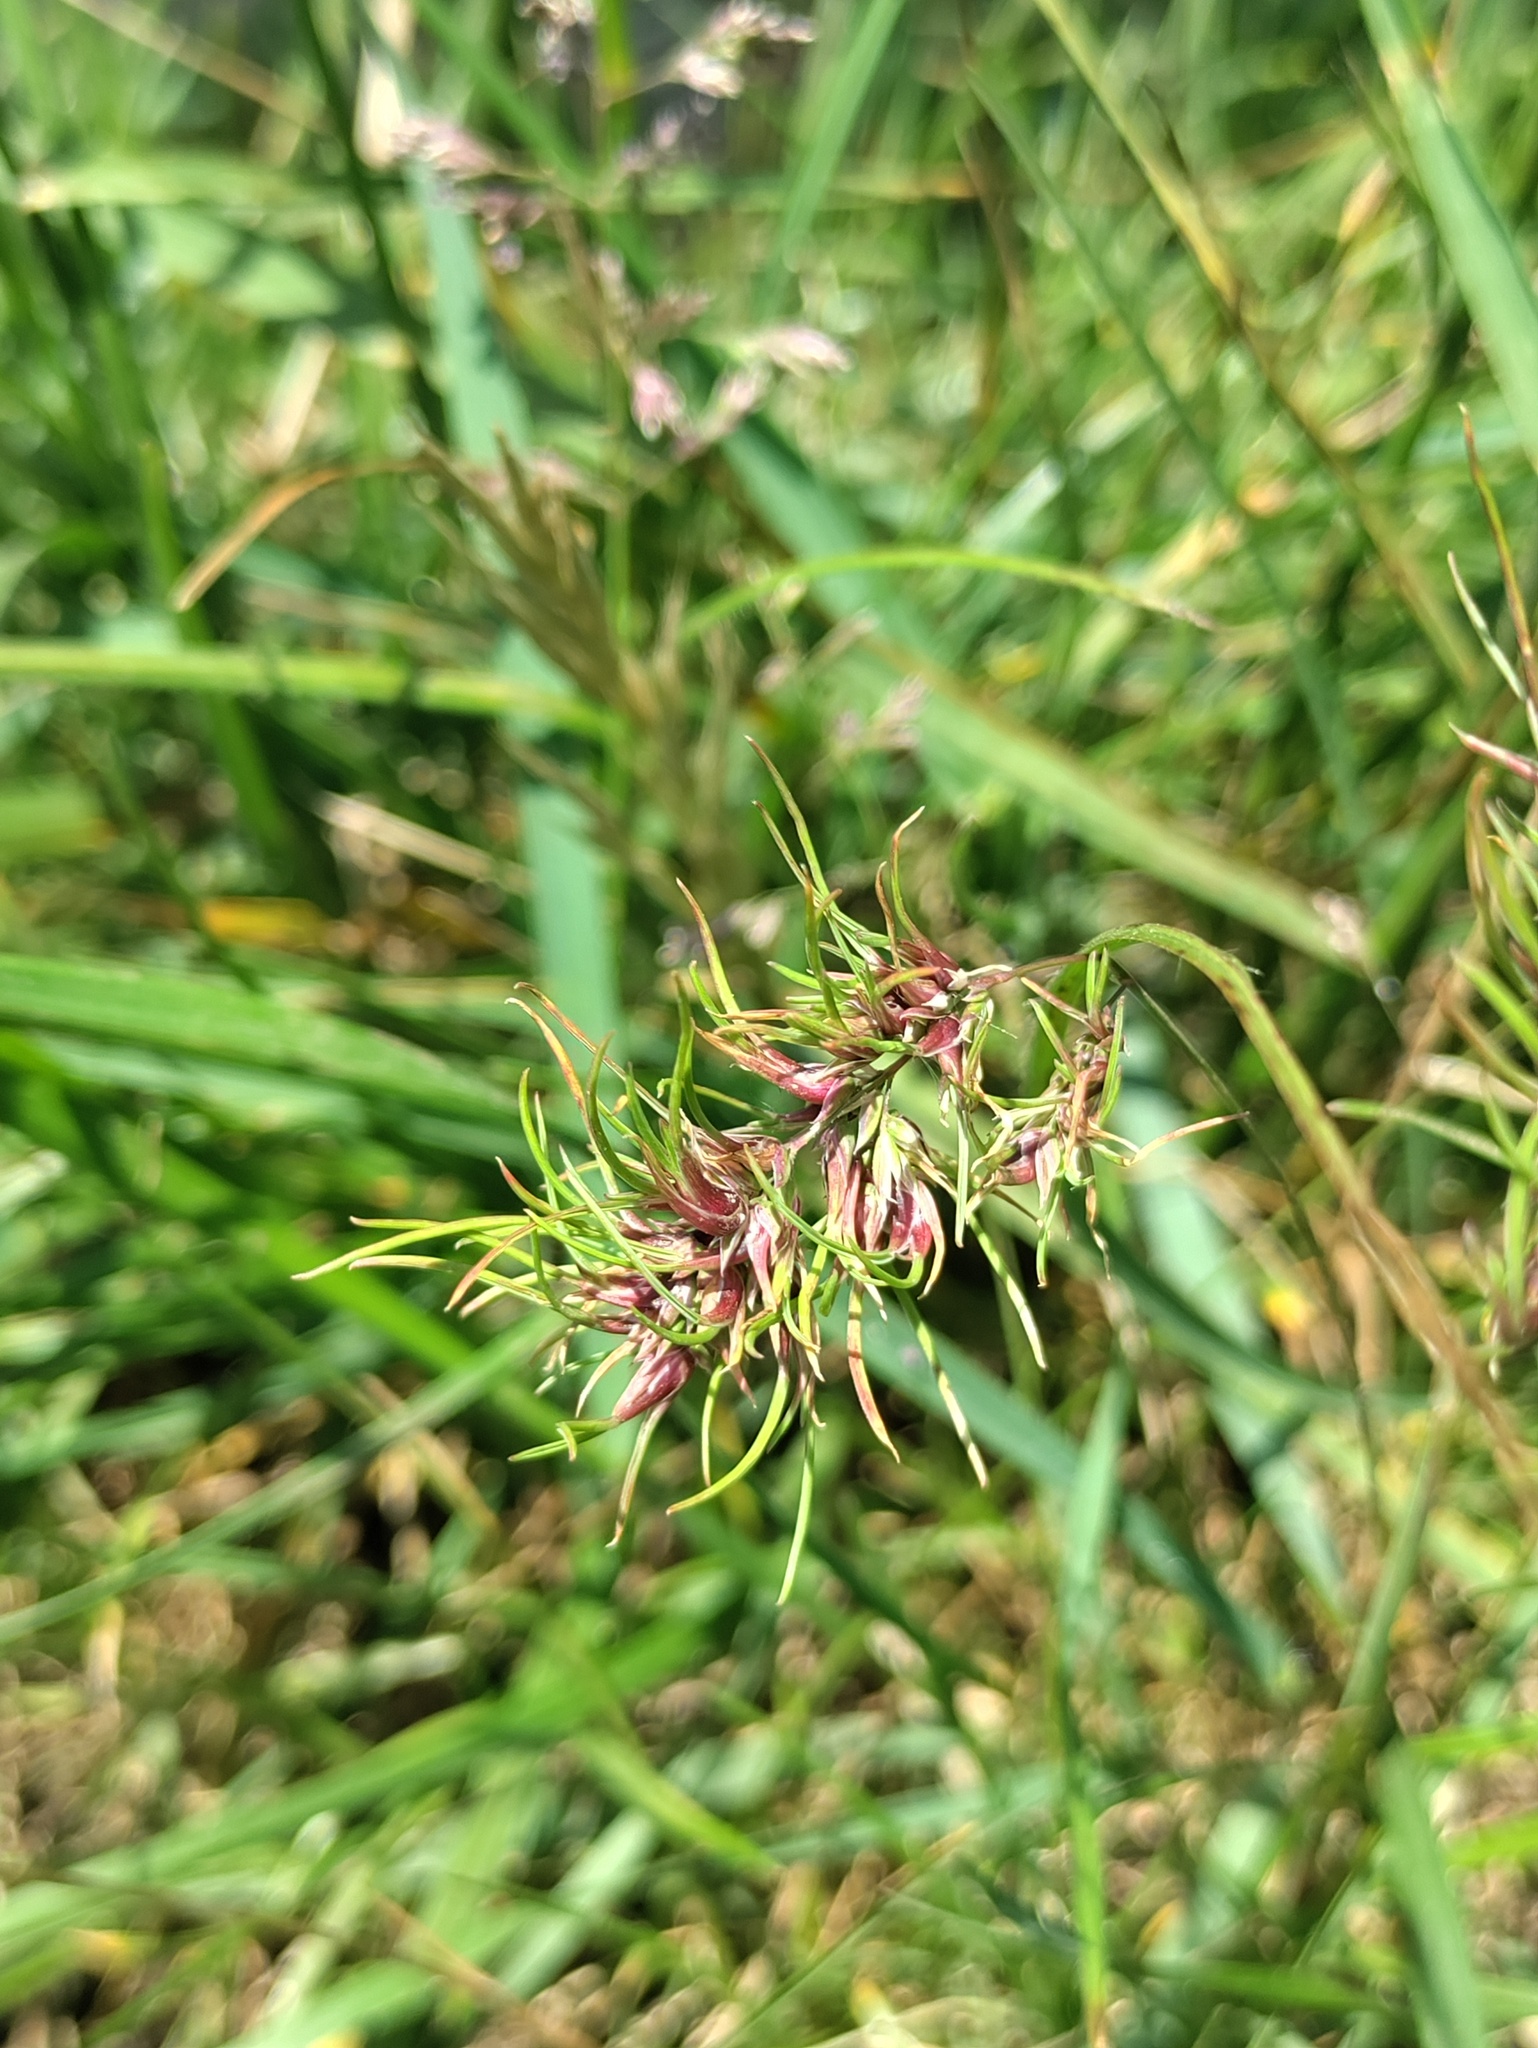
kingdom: Plantae
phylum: Tracheophyta
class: Liliopsida
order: Poales
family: Poaceae
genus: Poa
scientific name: Poa bulbosa
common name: Bulbous bluegrass
